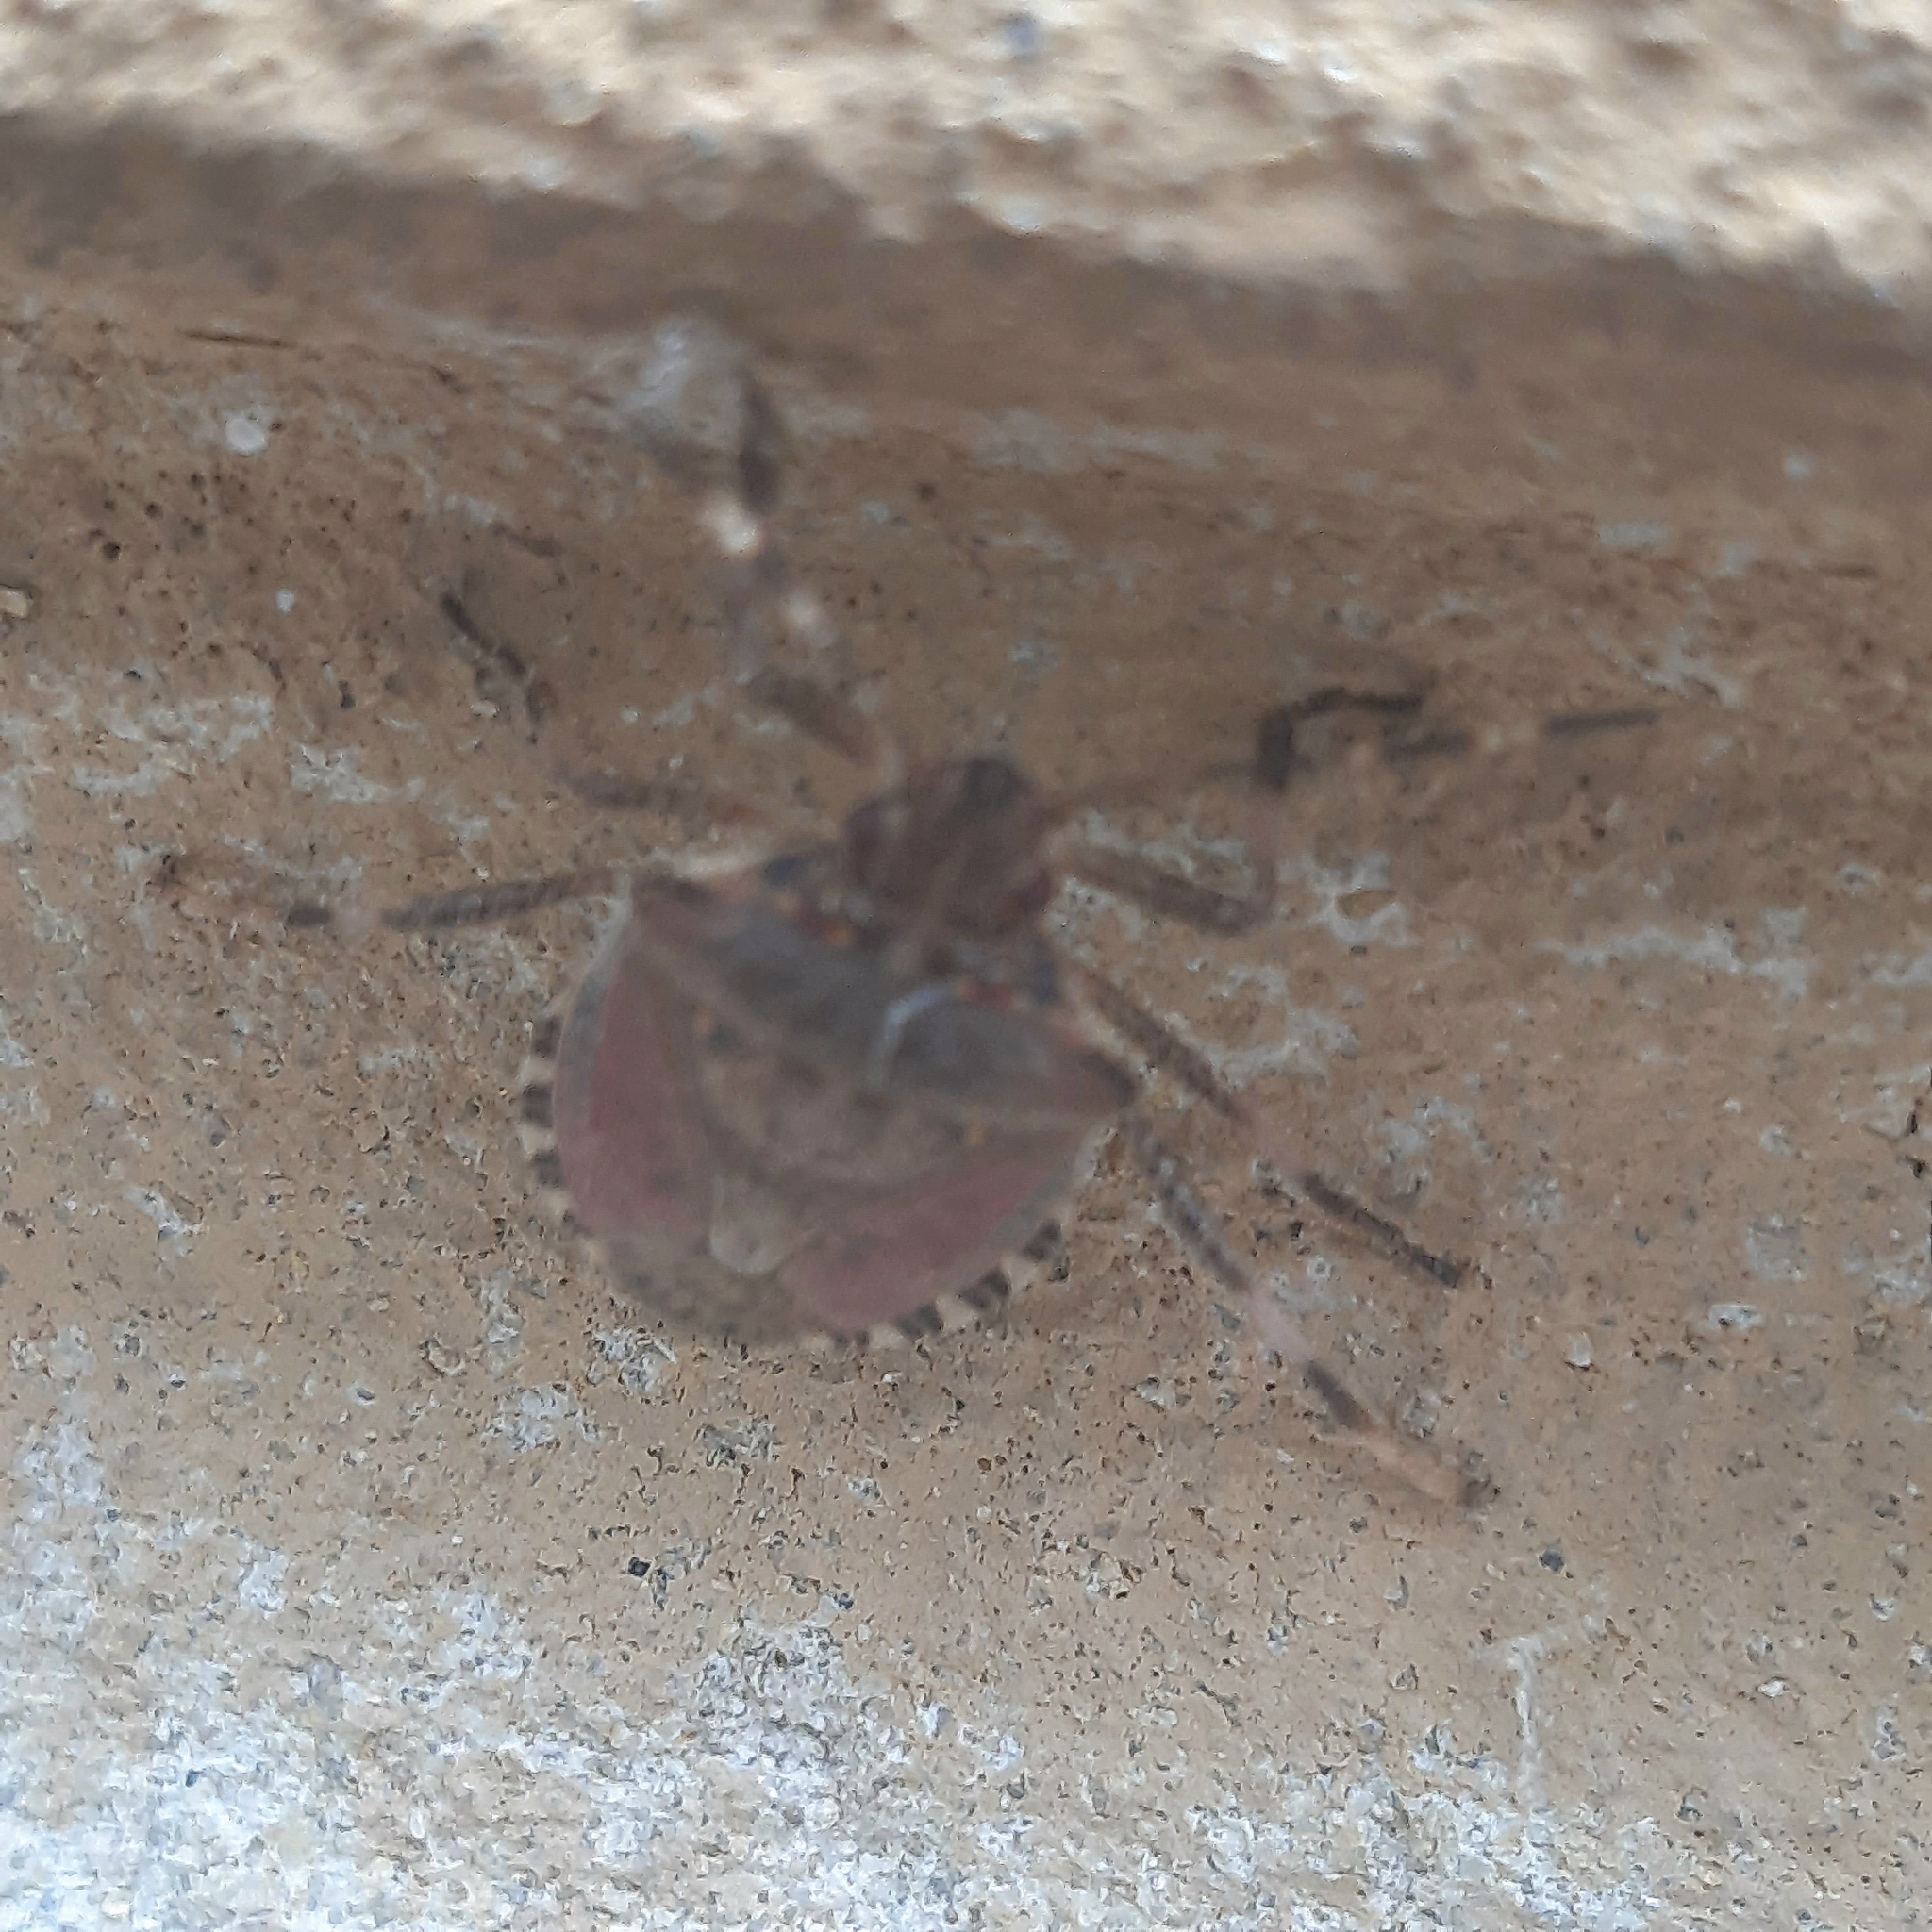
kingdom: Animalia
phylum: Arthropoda
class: Insecta
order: Hemiptera
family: Pentatomidae
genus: Halyomorpha
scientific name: Halyomorpha halys
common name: Brown marmorated stink bug
